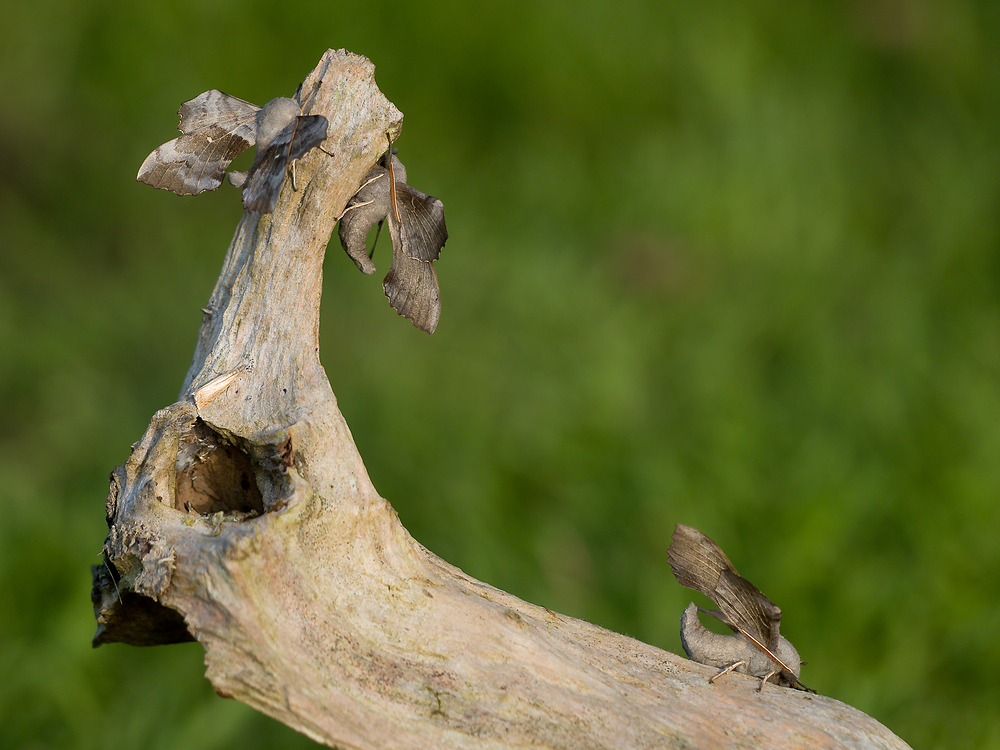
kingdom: Animalia
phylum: Arthropoda
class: Insecta
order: Lepidoptera
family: Sphingidae
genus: Laothoe
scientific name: Laothoe populi
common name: Poplar hawk-moth
